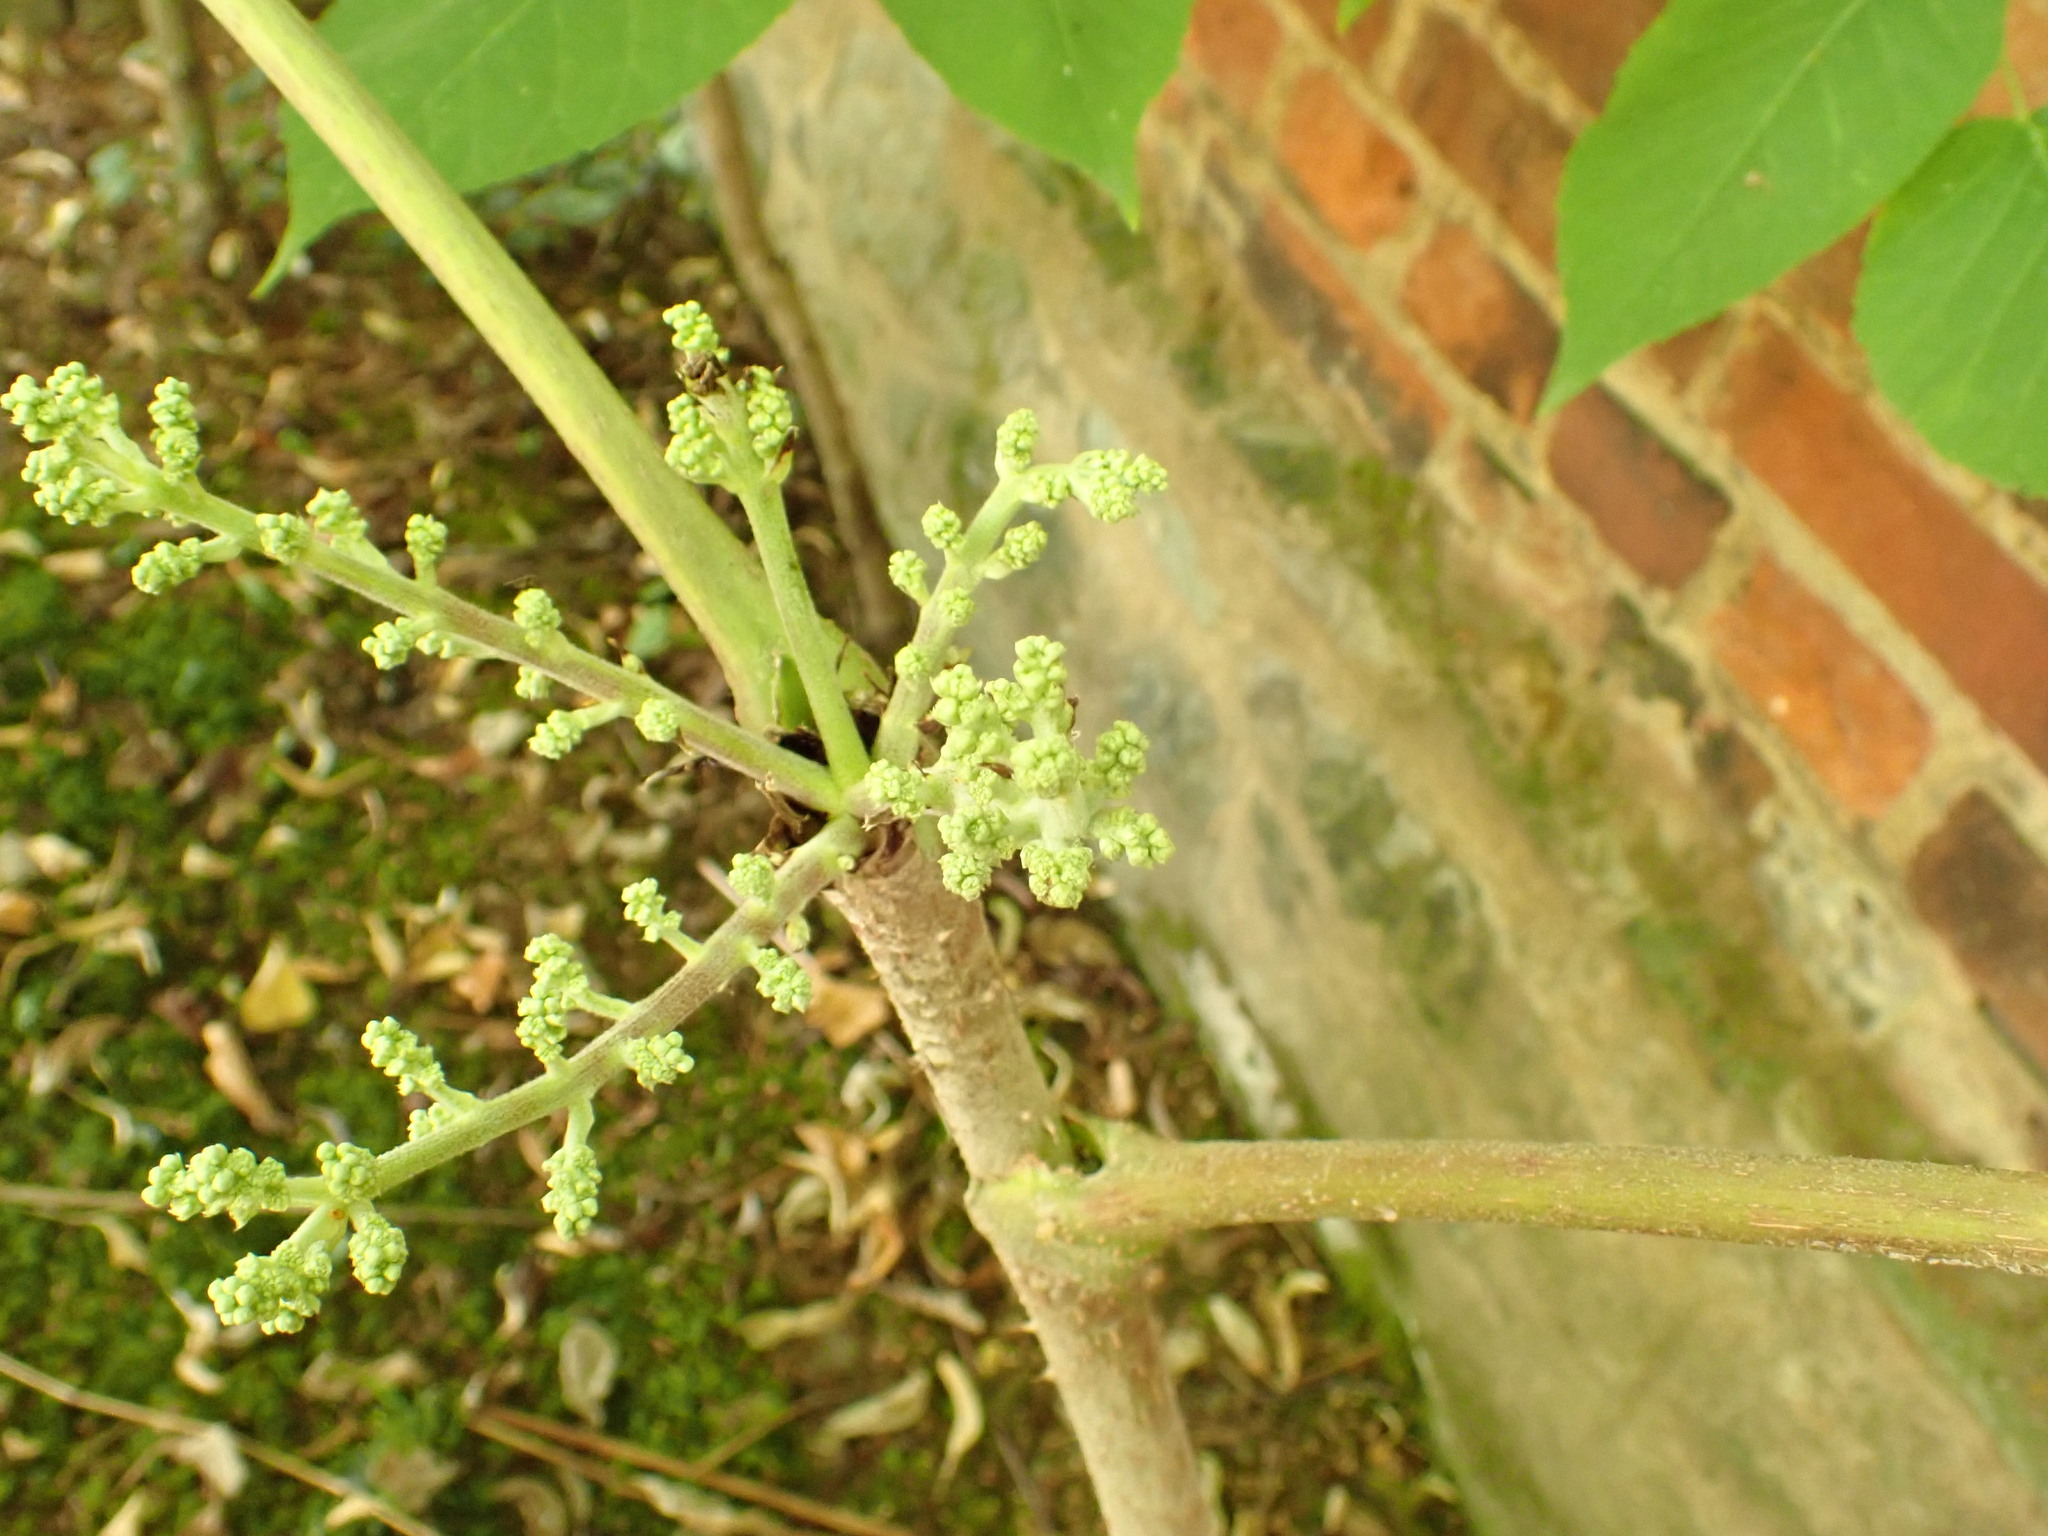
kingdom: Plantae
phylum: Tracheophyta
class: Magnoliopsida
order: Apiales
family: Araliaceae
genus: Aralia
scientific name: Aralia elata
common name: Japanese angelica-tree
